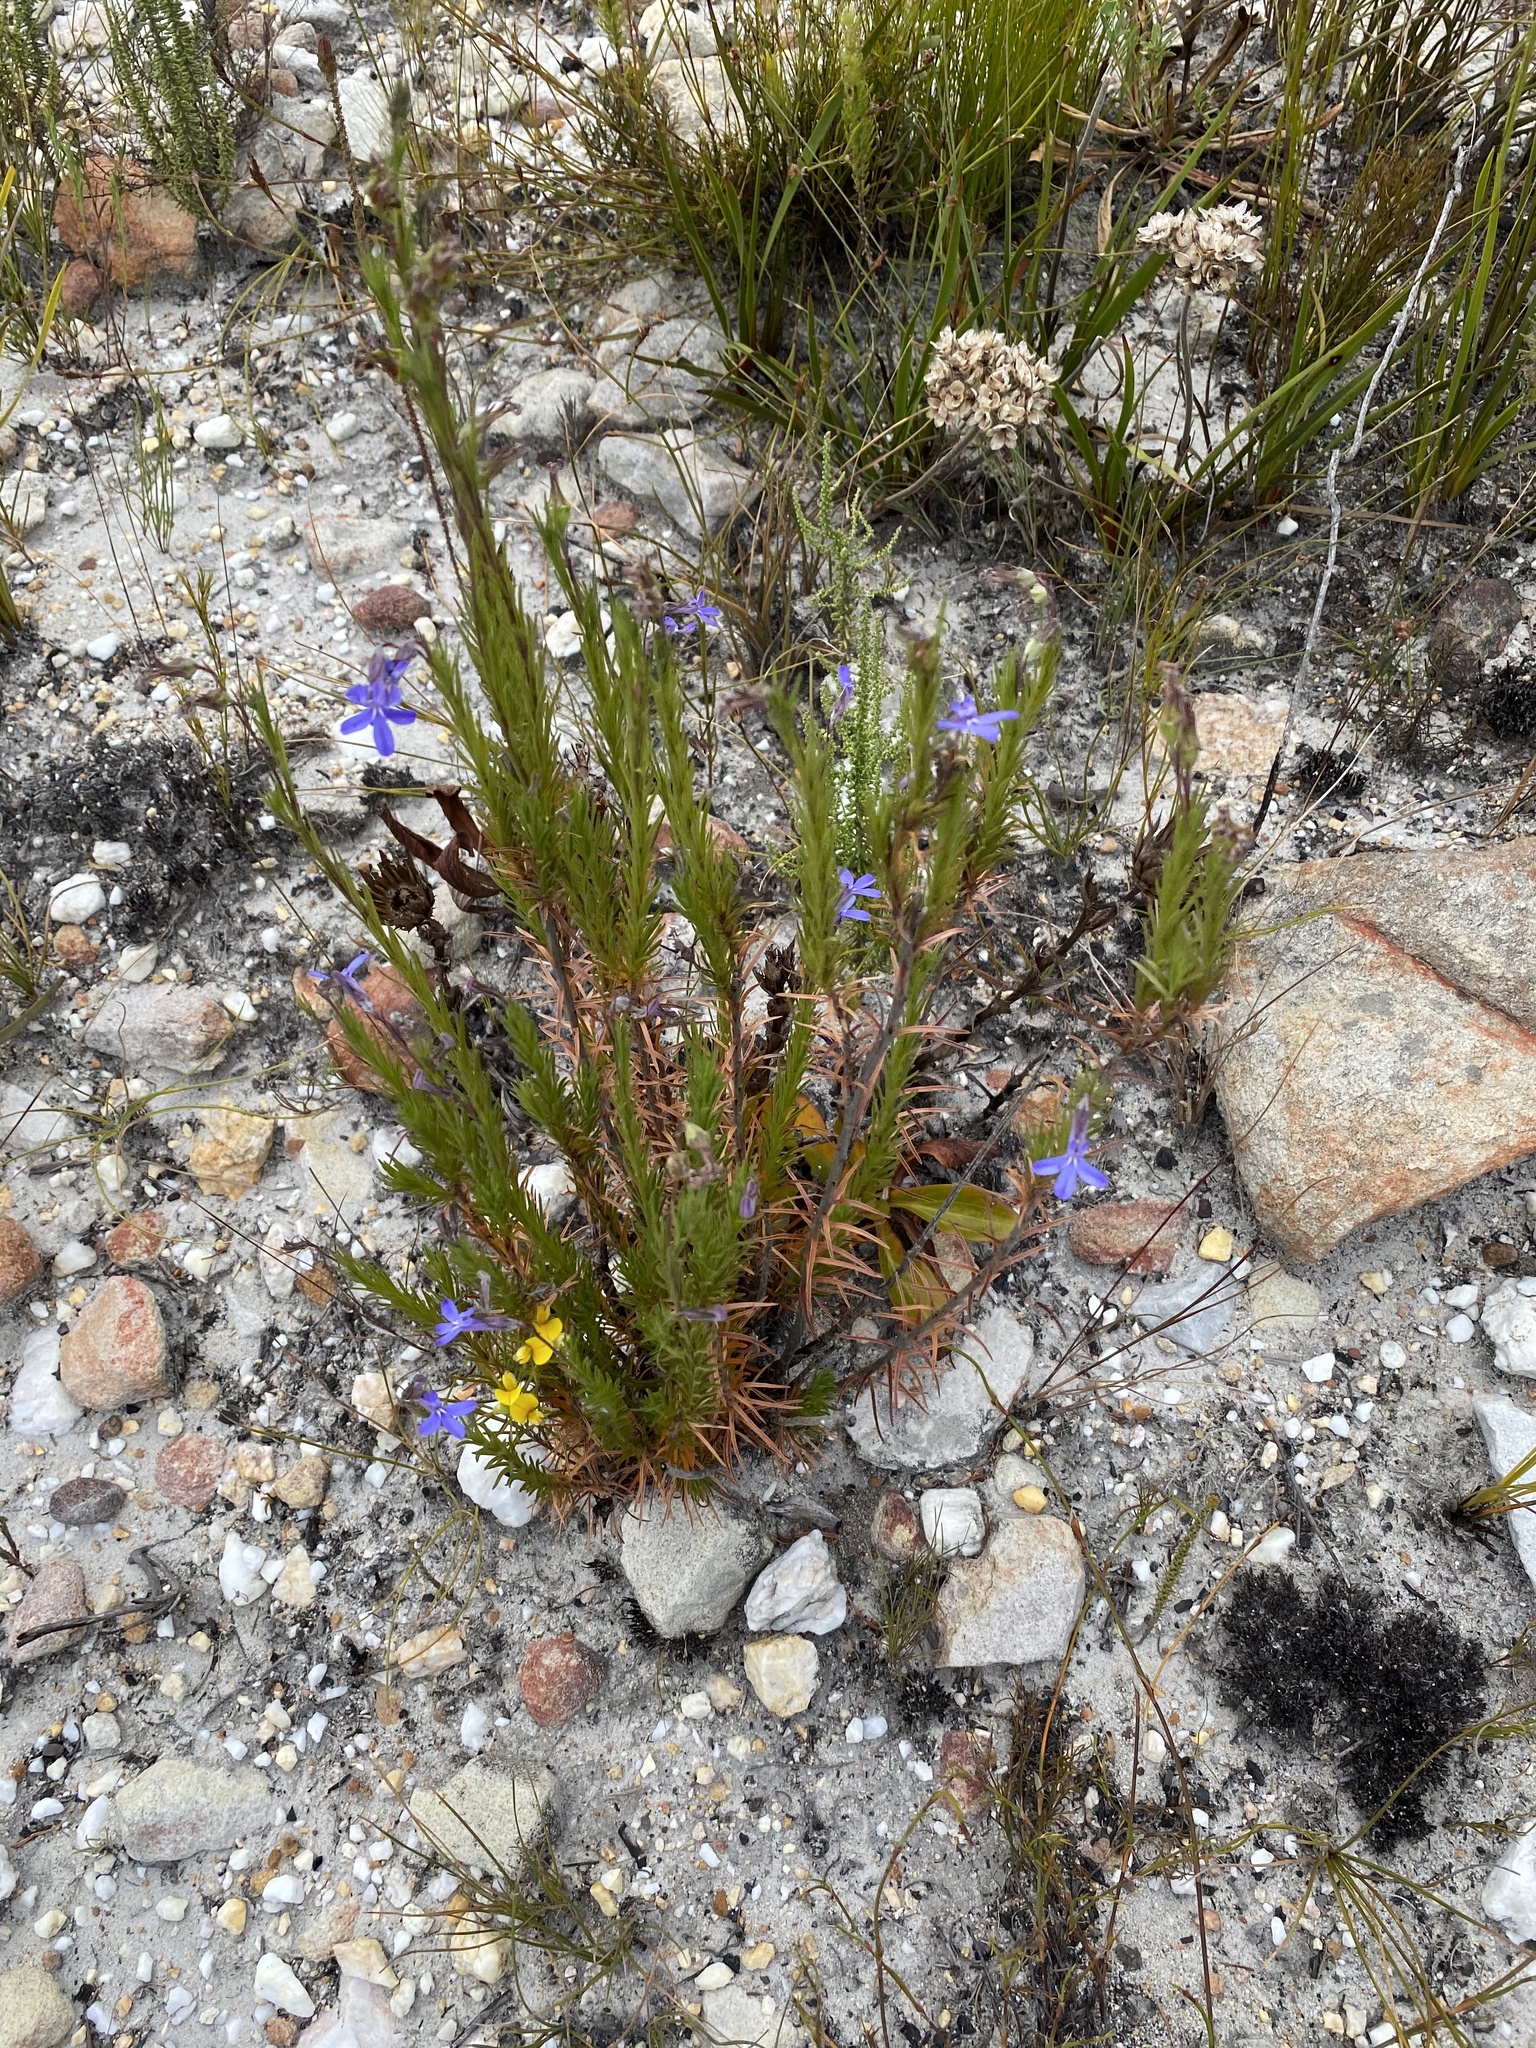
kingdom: Plantae
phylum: Tracheophyta
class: Magnoliopsida
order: Asterales
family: Campanulaceae
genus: Lobelia
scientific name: Lobelia pinifolia
